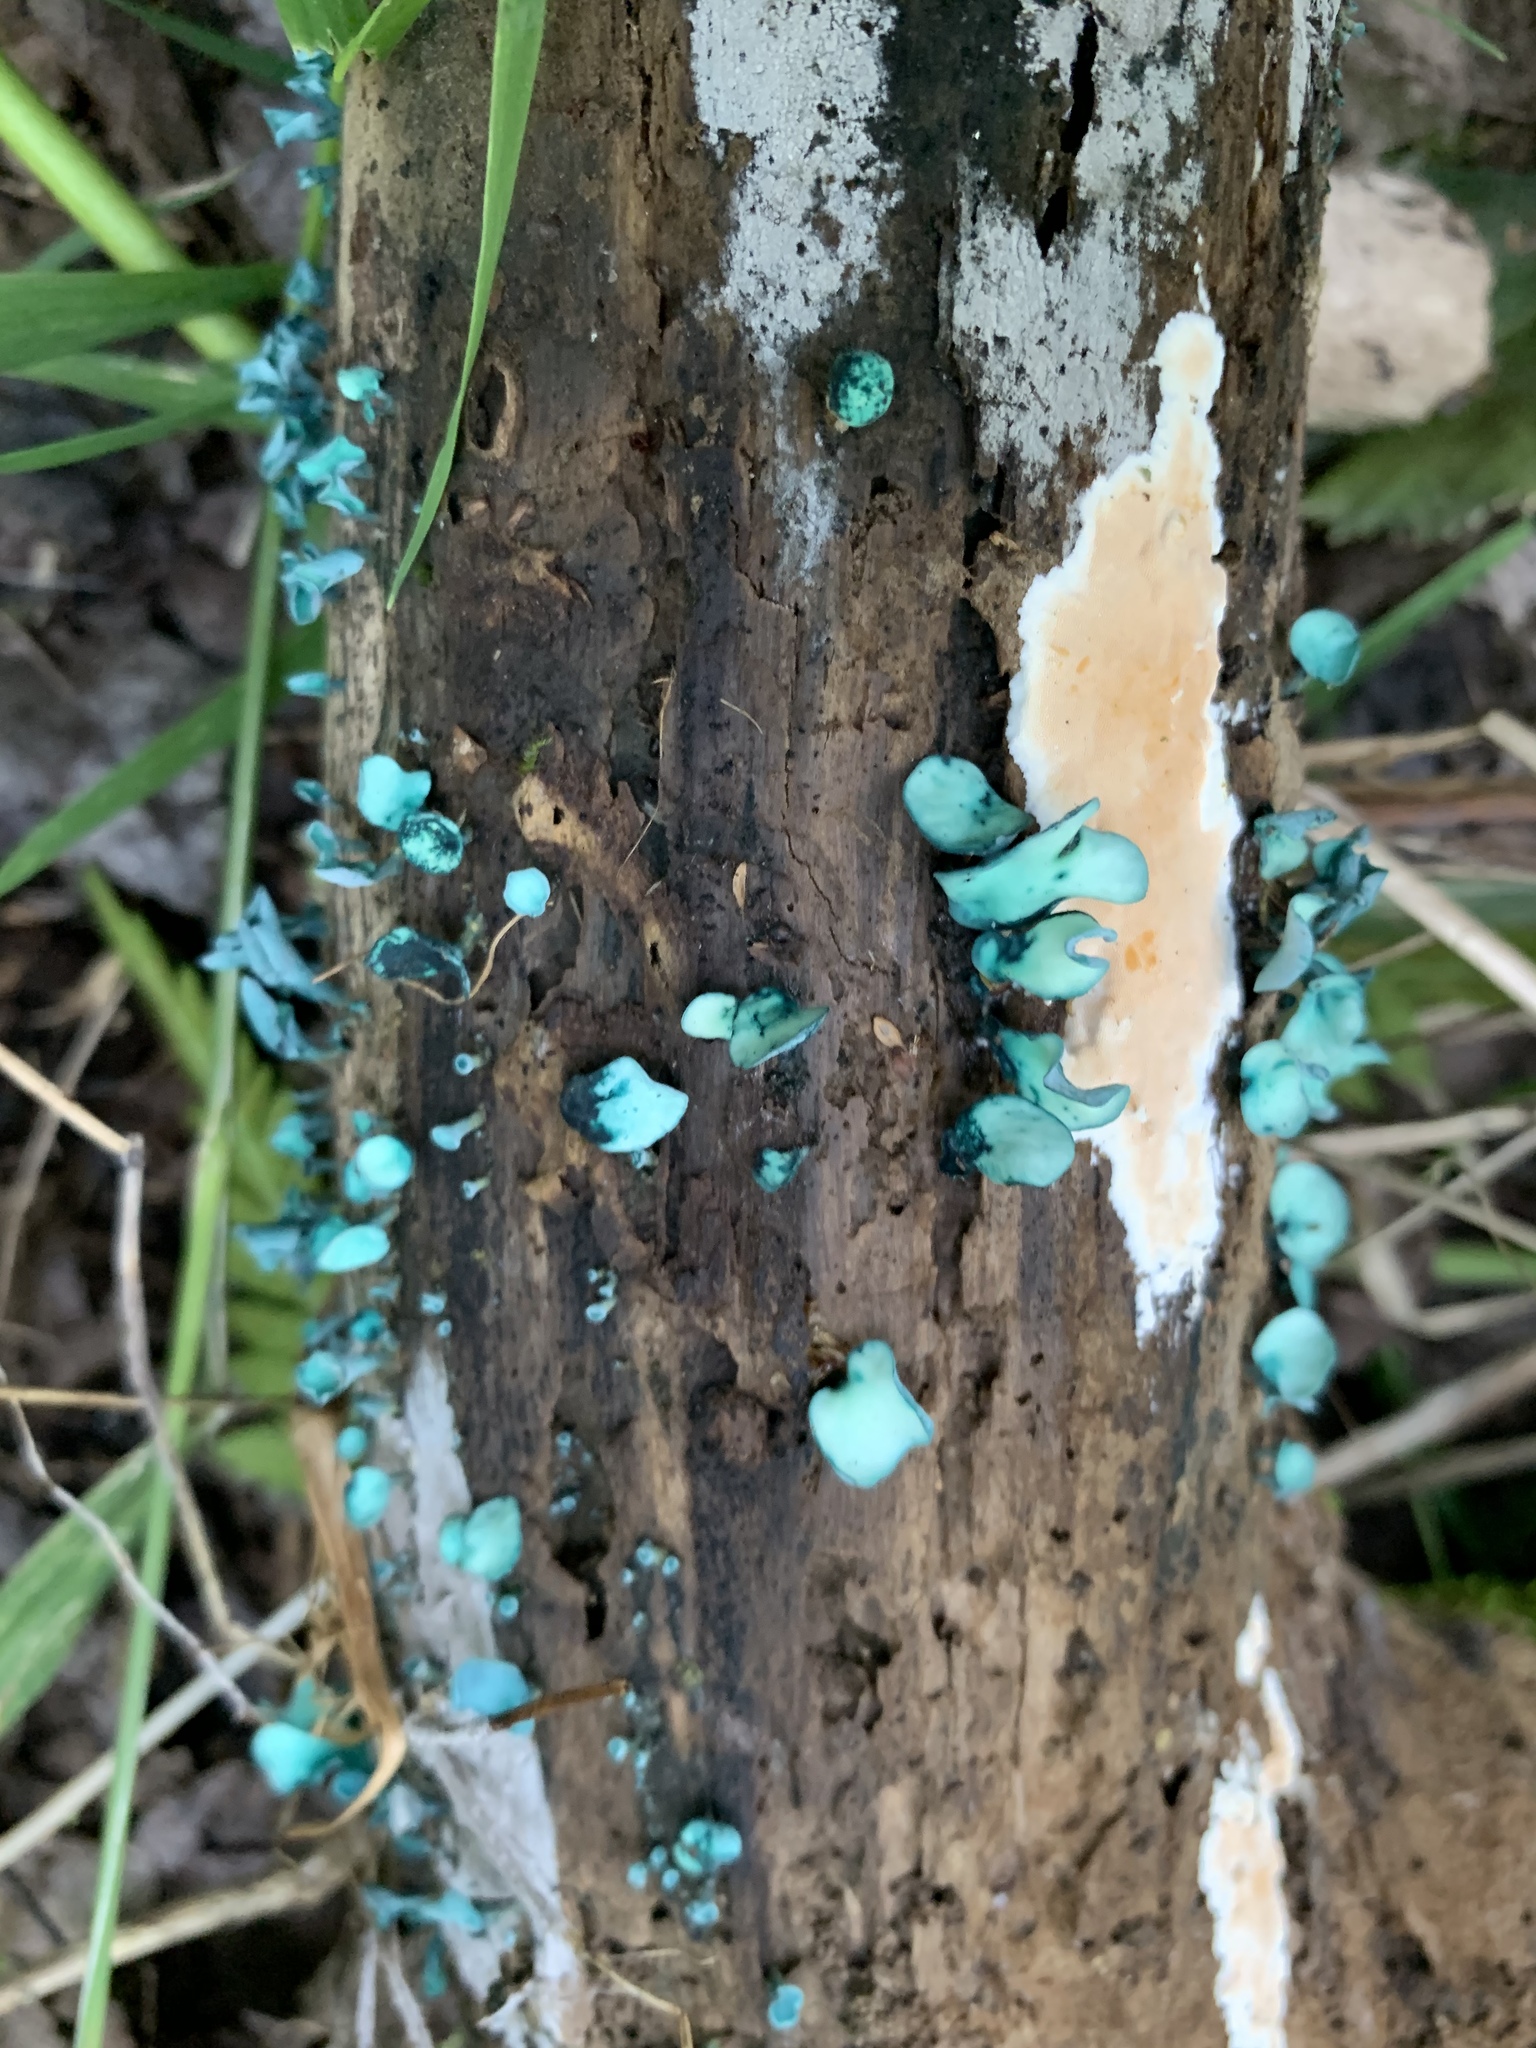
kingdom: Fungi
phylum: Ascomycota
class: Leotiomycetes
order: Helotiales
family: Chlorociboriaceae
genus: Chlorociboria
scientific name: Chlorociboria aeruginascens
